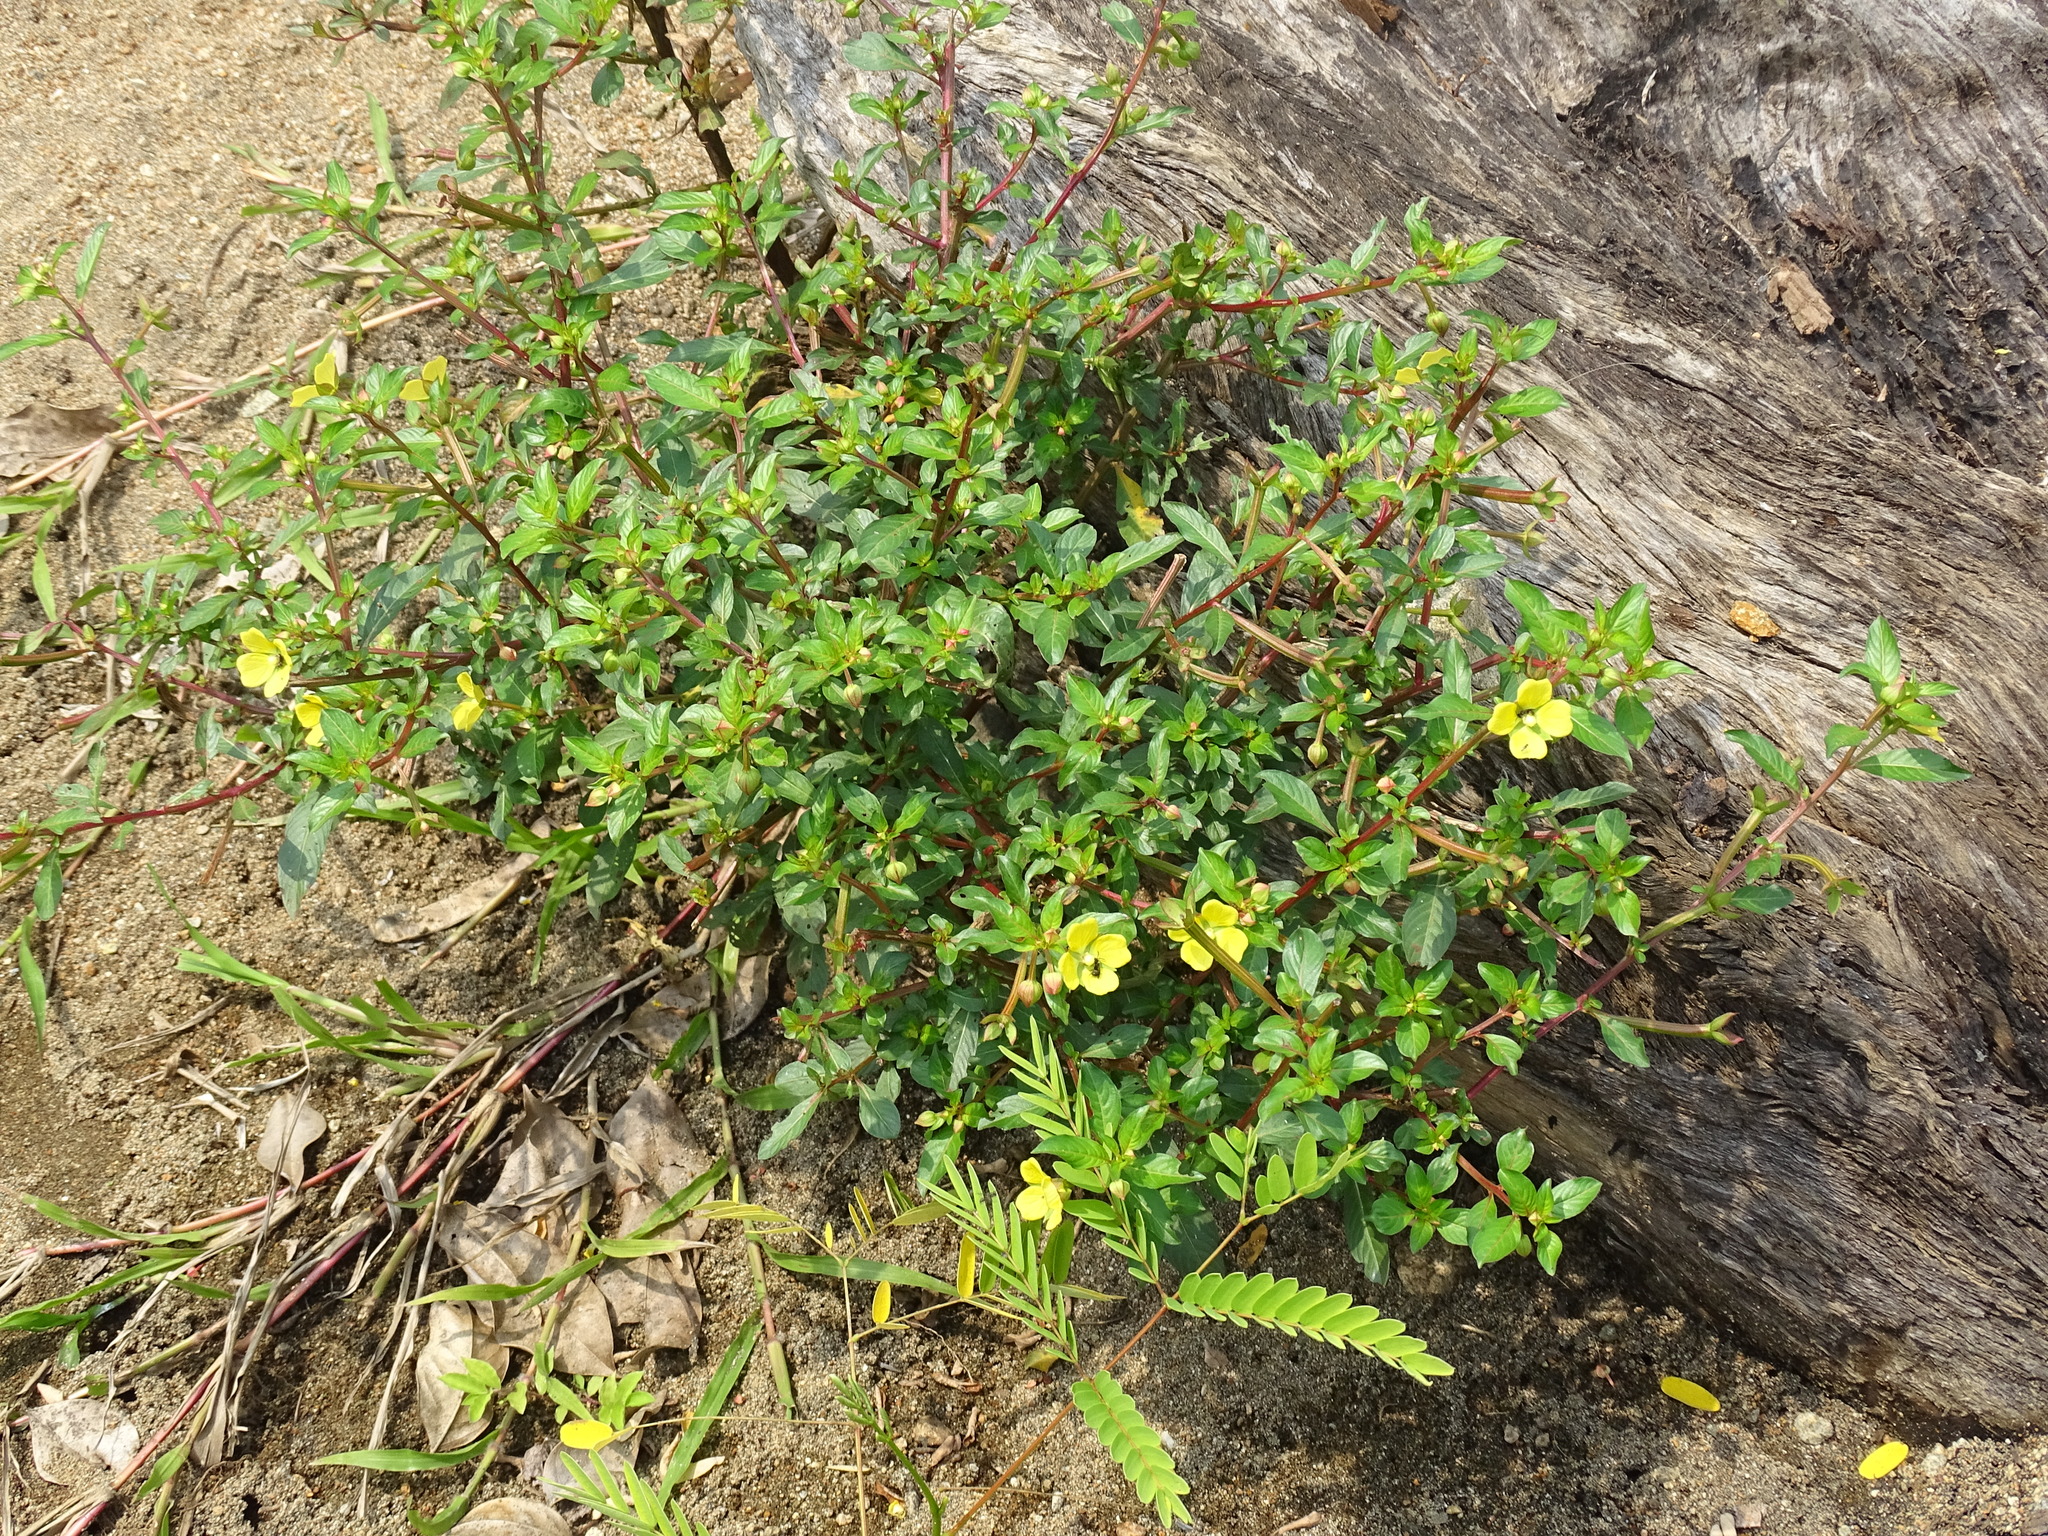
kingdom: Plantae
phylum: Tracheophyta
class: Magnoliopsida
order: Myrtales
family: Onagraceae
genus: Ludwigia
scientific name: Ludwigia octovalvis
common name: Water-primrose
